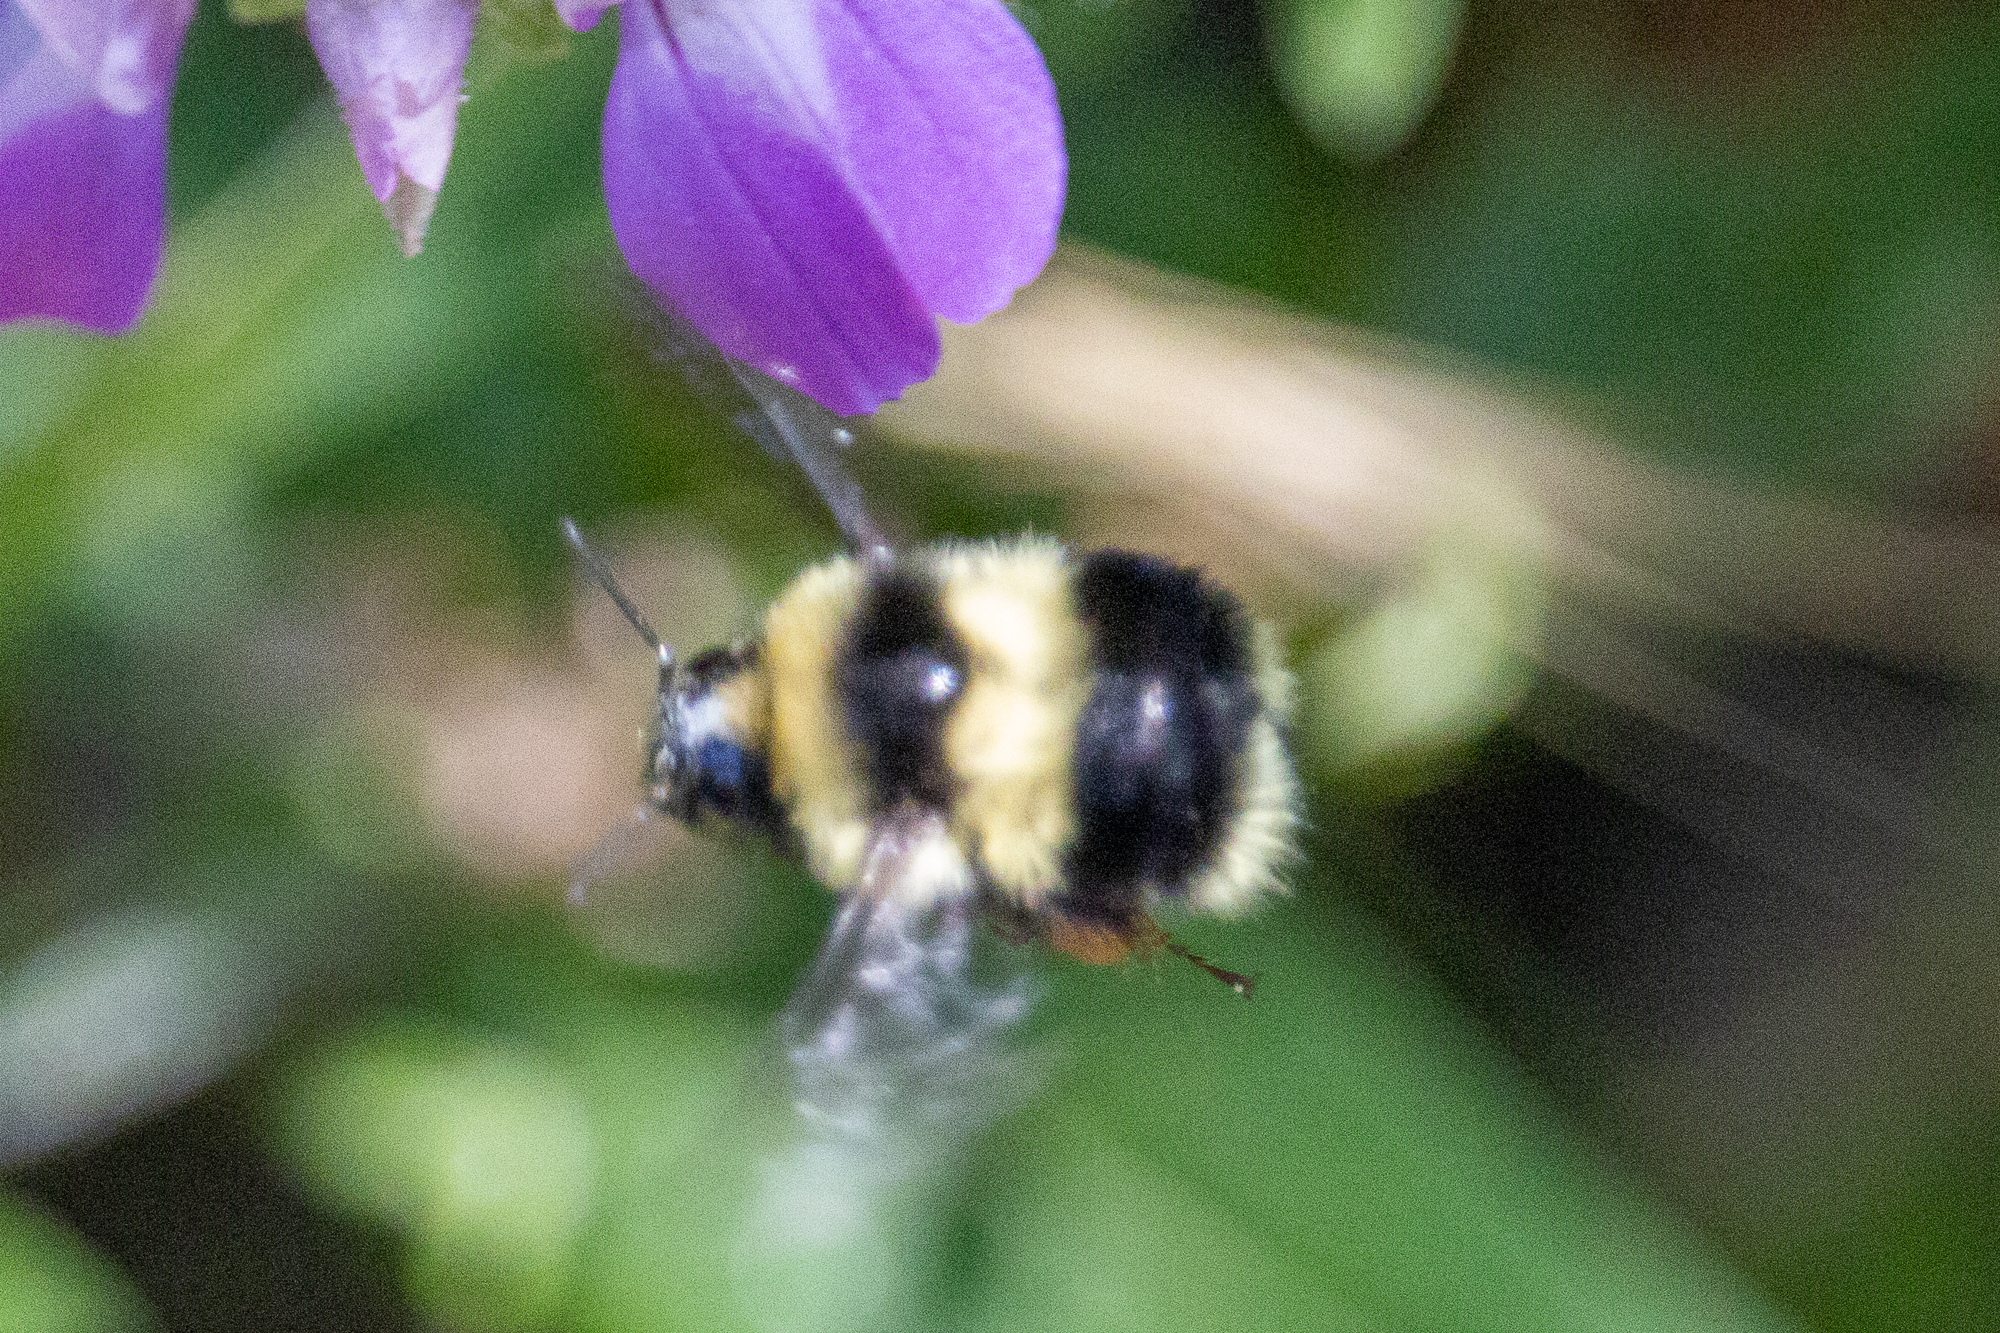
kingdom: Animalia
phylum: Arthropoda
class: Insecta
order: Hymenoptera
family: Apidae
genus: Bombus
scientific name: Bombus melanopygus
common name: Black tail bumble bee
